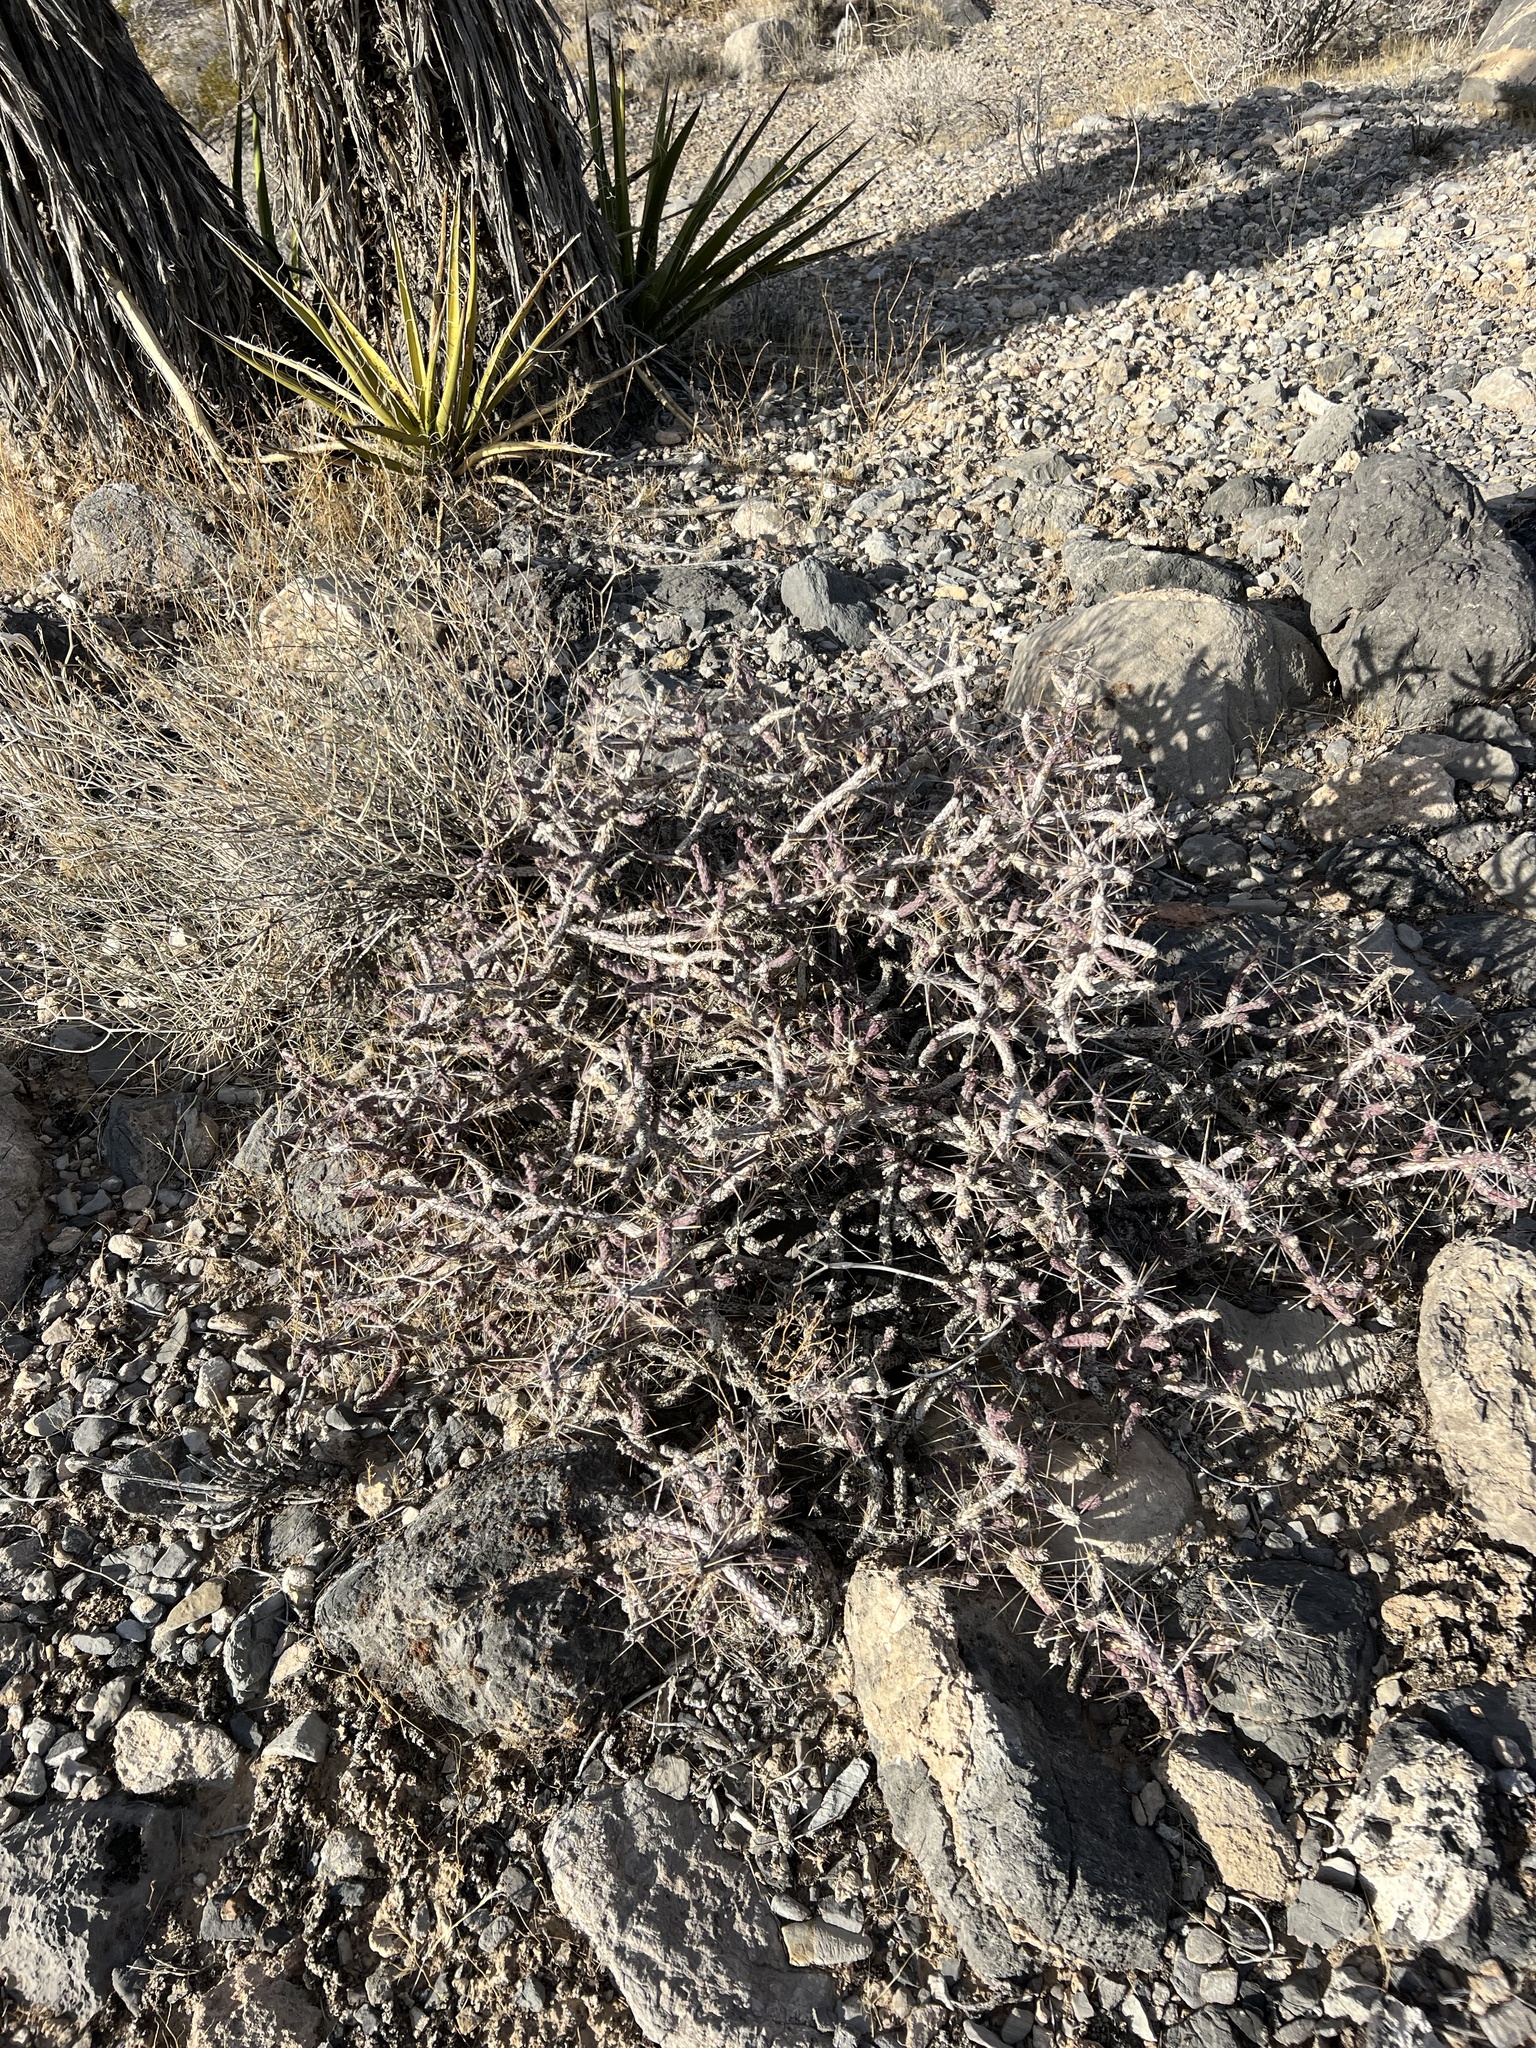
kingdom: Plantae
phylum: Tracheophyta
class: Magnoliopsida
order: Caryophyllales
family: Cactaceae
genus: Cylindropuntia
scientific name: Cylindropuntia ramosissima
